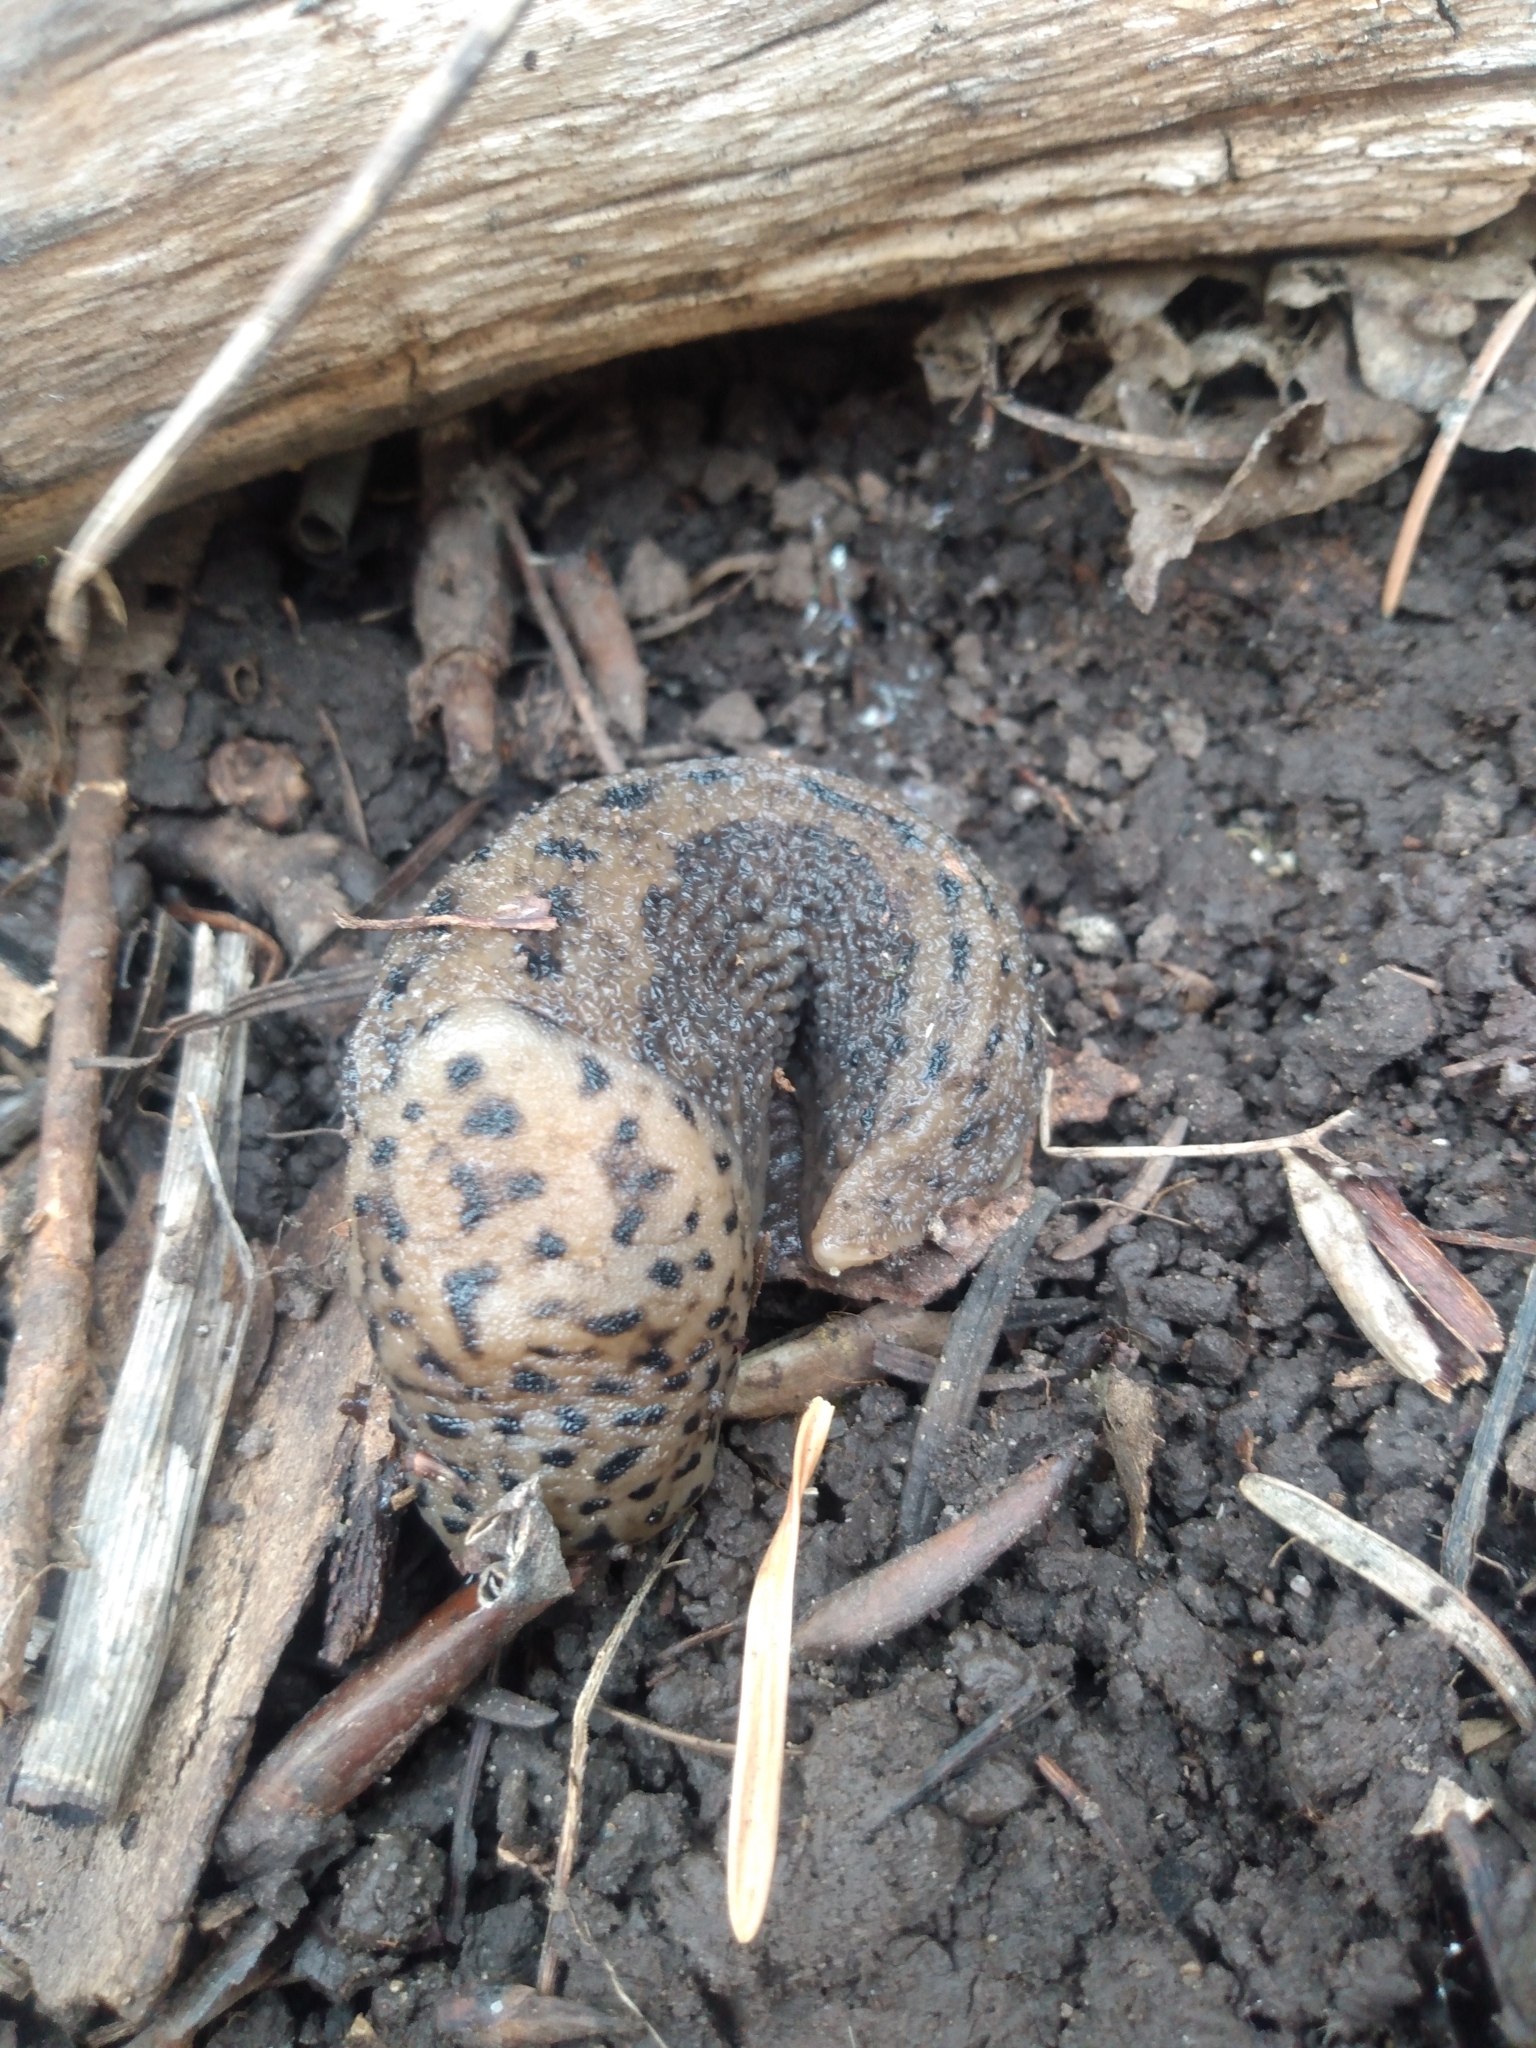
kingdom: Animalia
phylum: Mollusca
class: Gastropoda
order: Stylommatophora
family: Limacidae
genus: Limax
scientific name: Limax maximus
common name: Great grey slug
